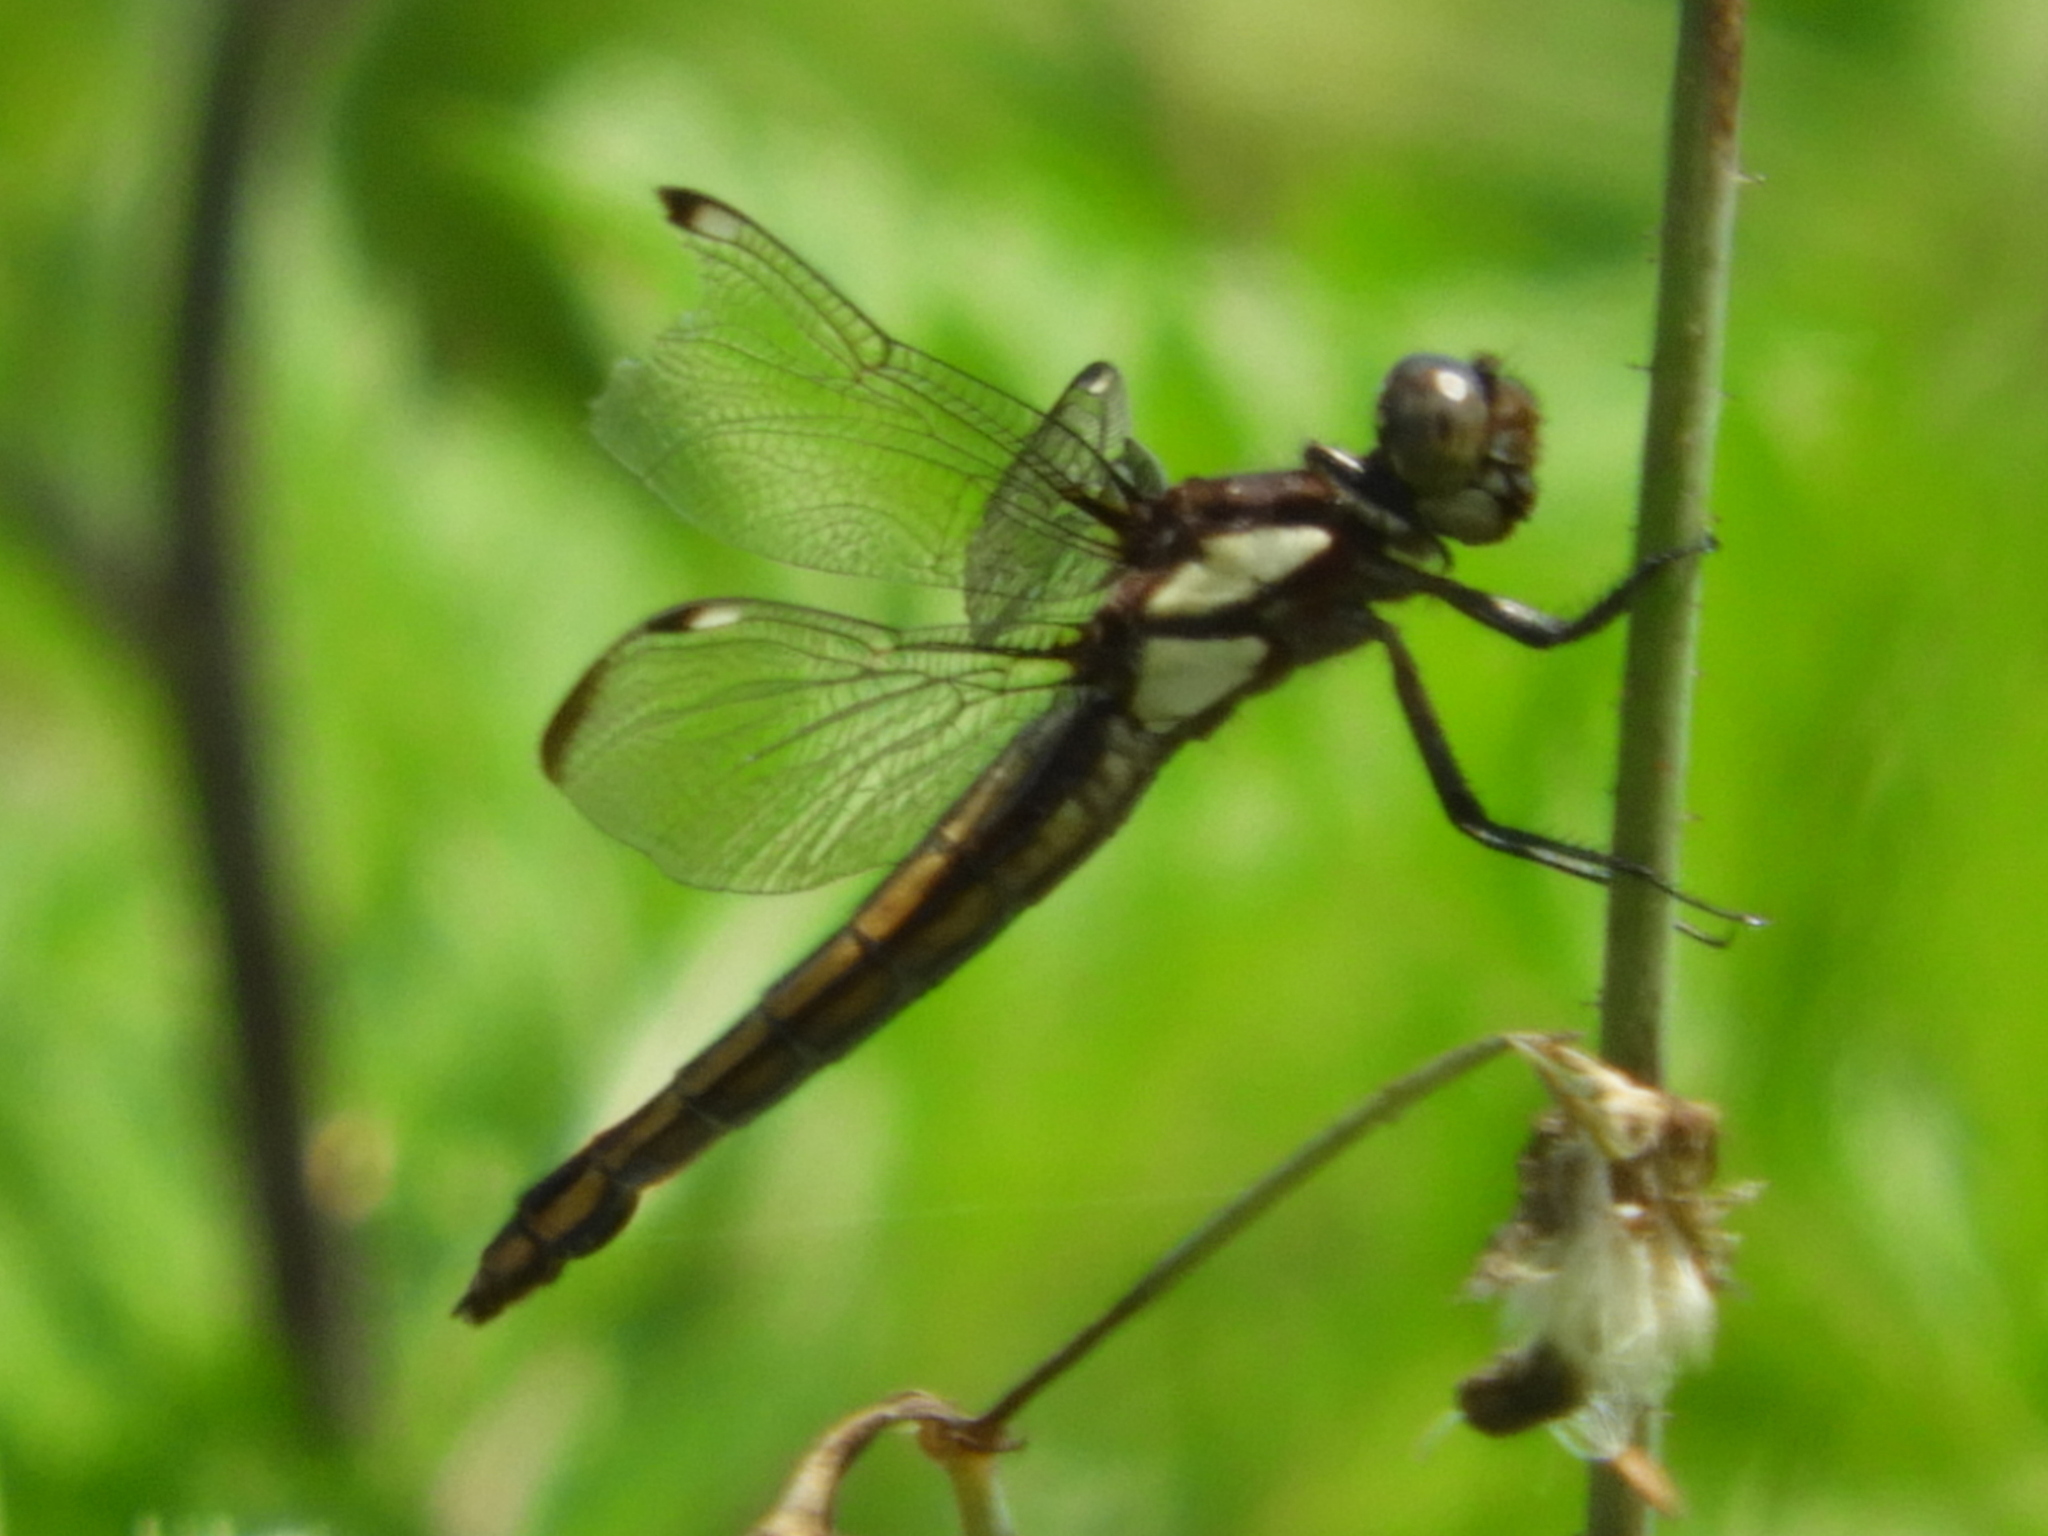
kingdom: Animalia
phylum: Arthropoda
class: Insecta
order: Odonata
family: Libellulidae
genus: Libellula
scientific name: Libellula cyanea
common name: Spangled skimmer
